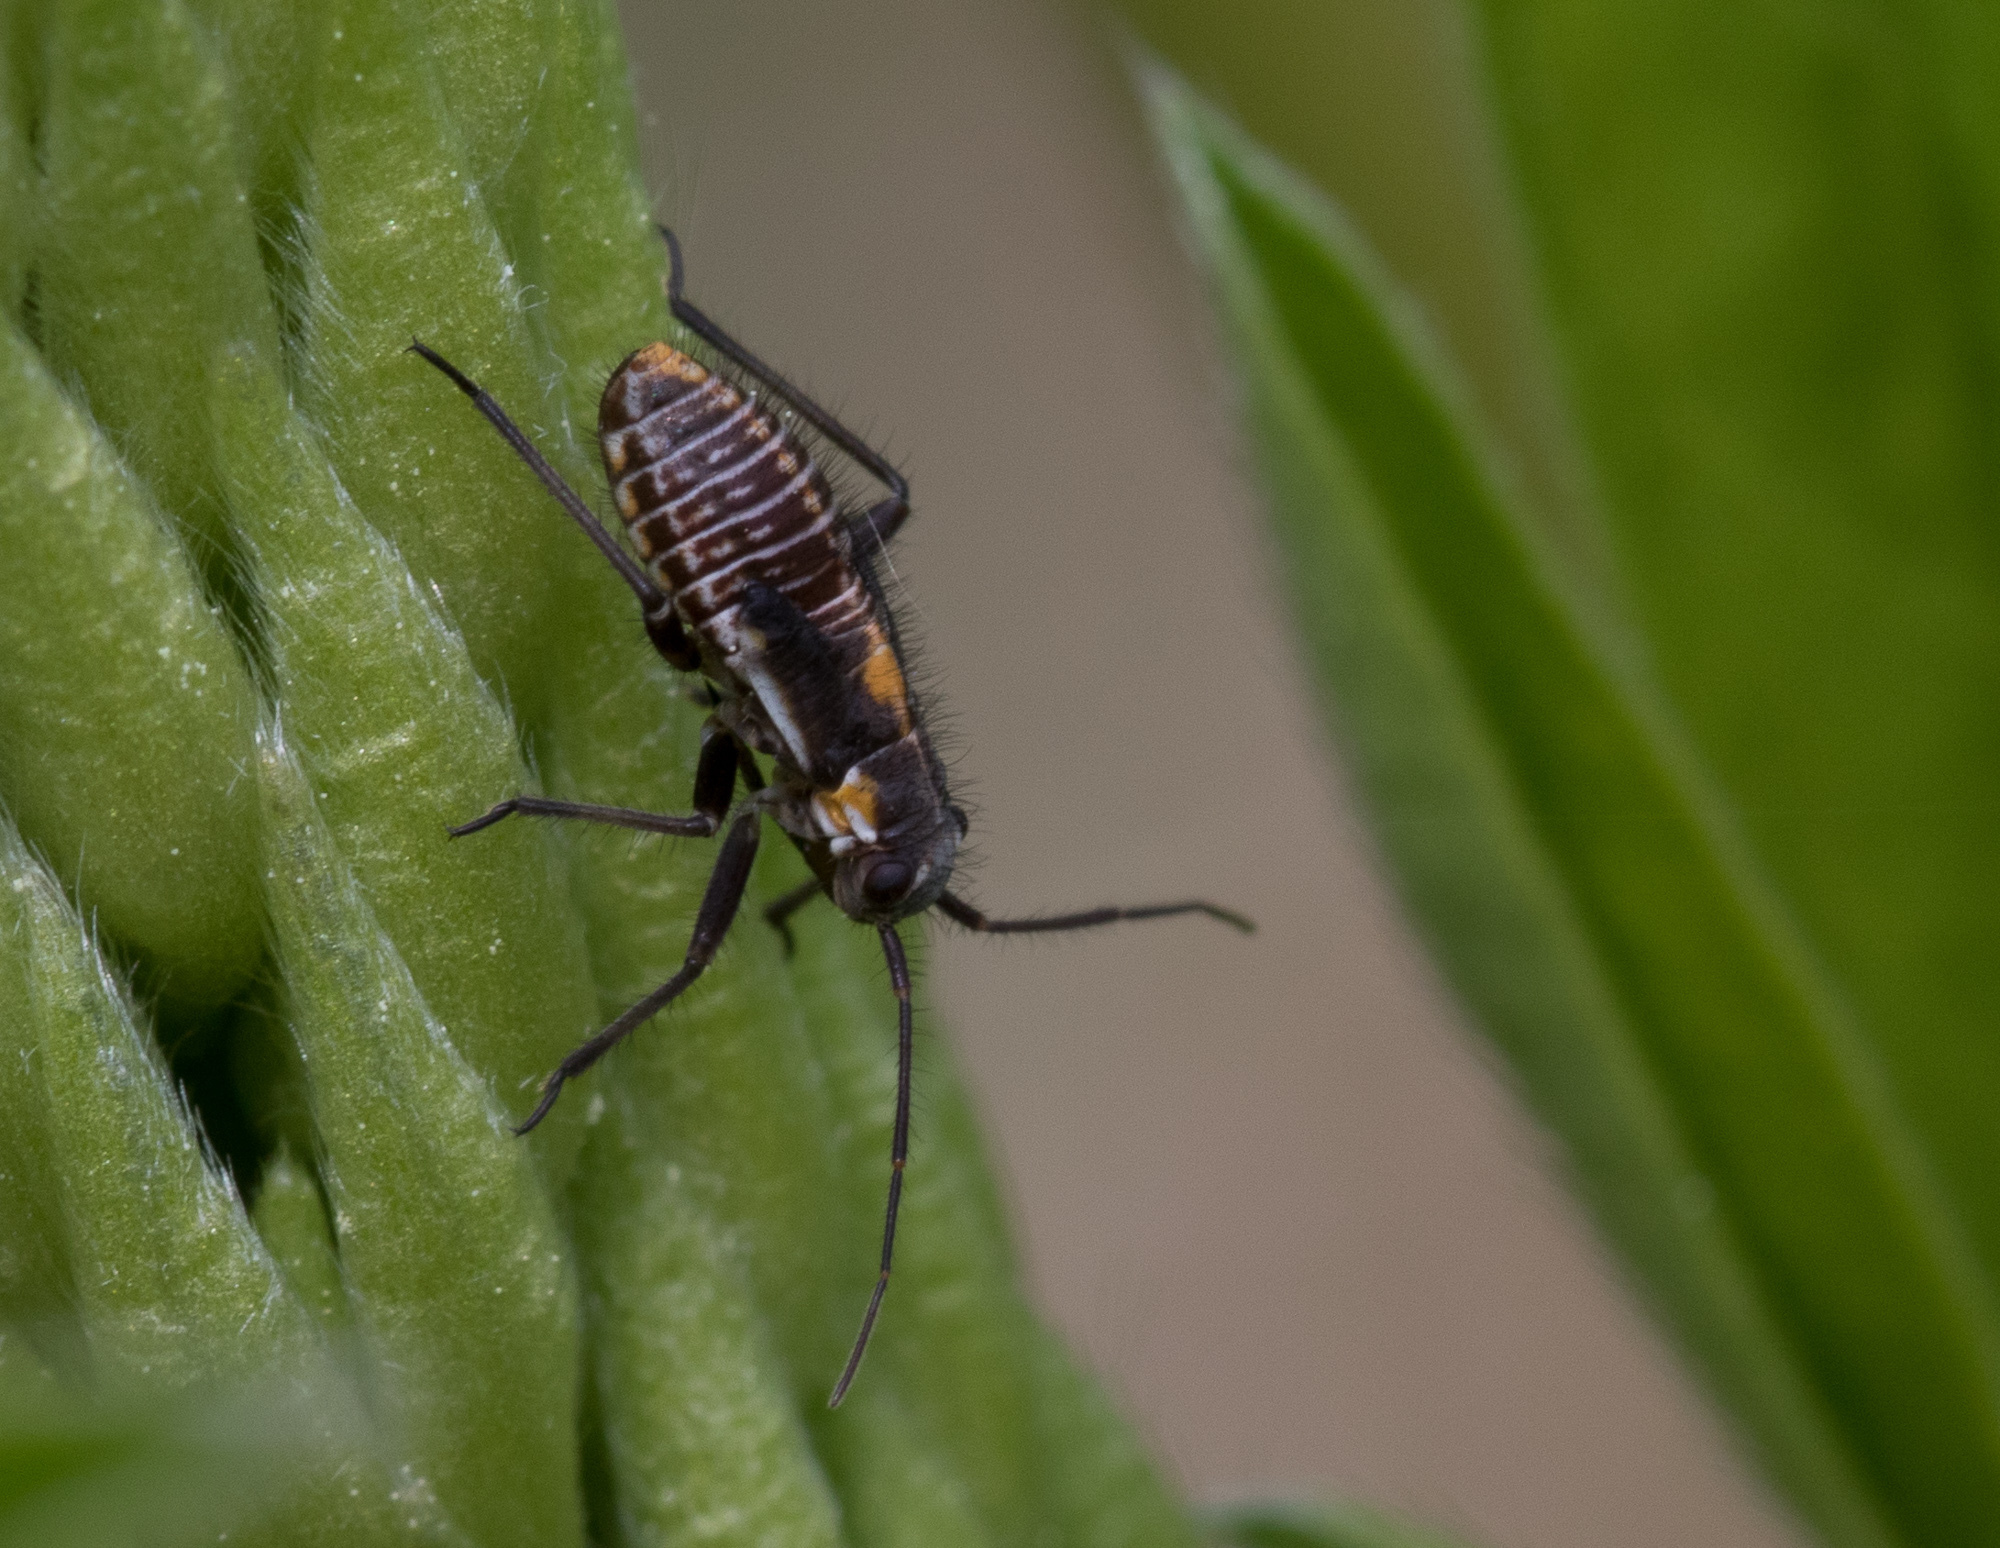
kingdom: Animalia
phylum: Arthropoda
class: Insecta
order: Hemiptera
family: Miridae
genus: Capsodes
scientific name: Capsodes gothicus
